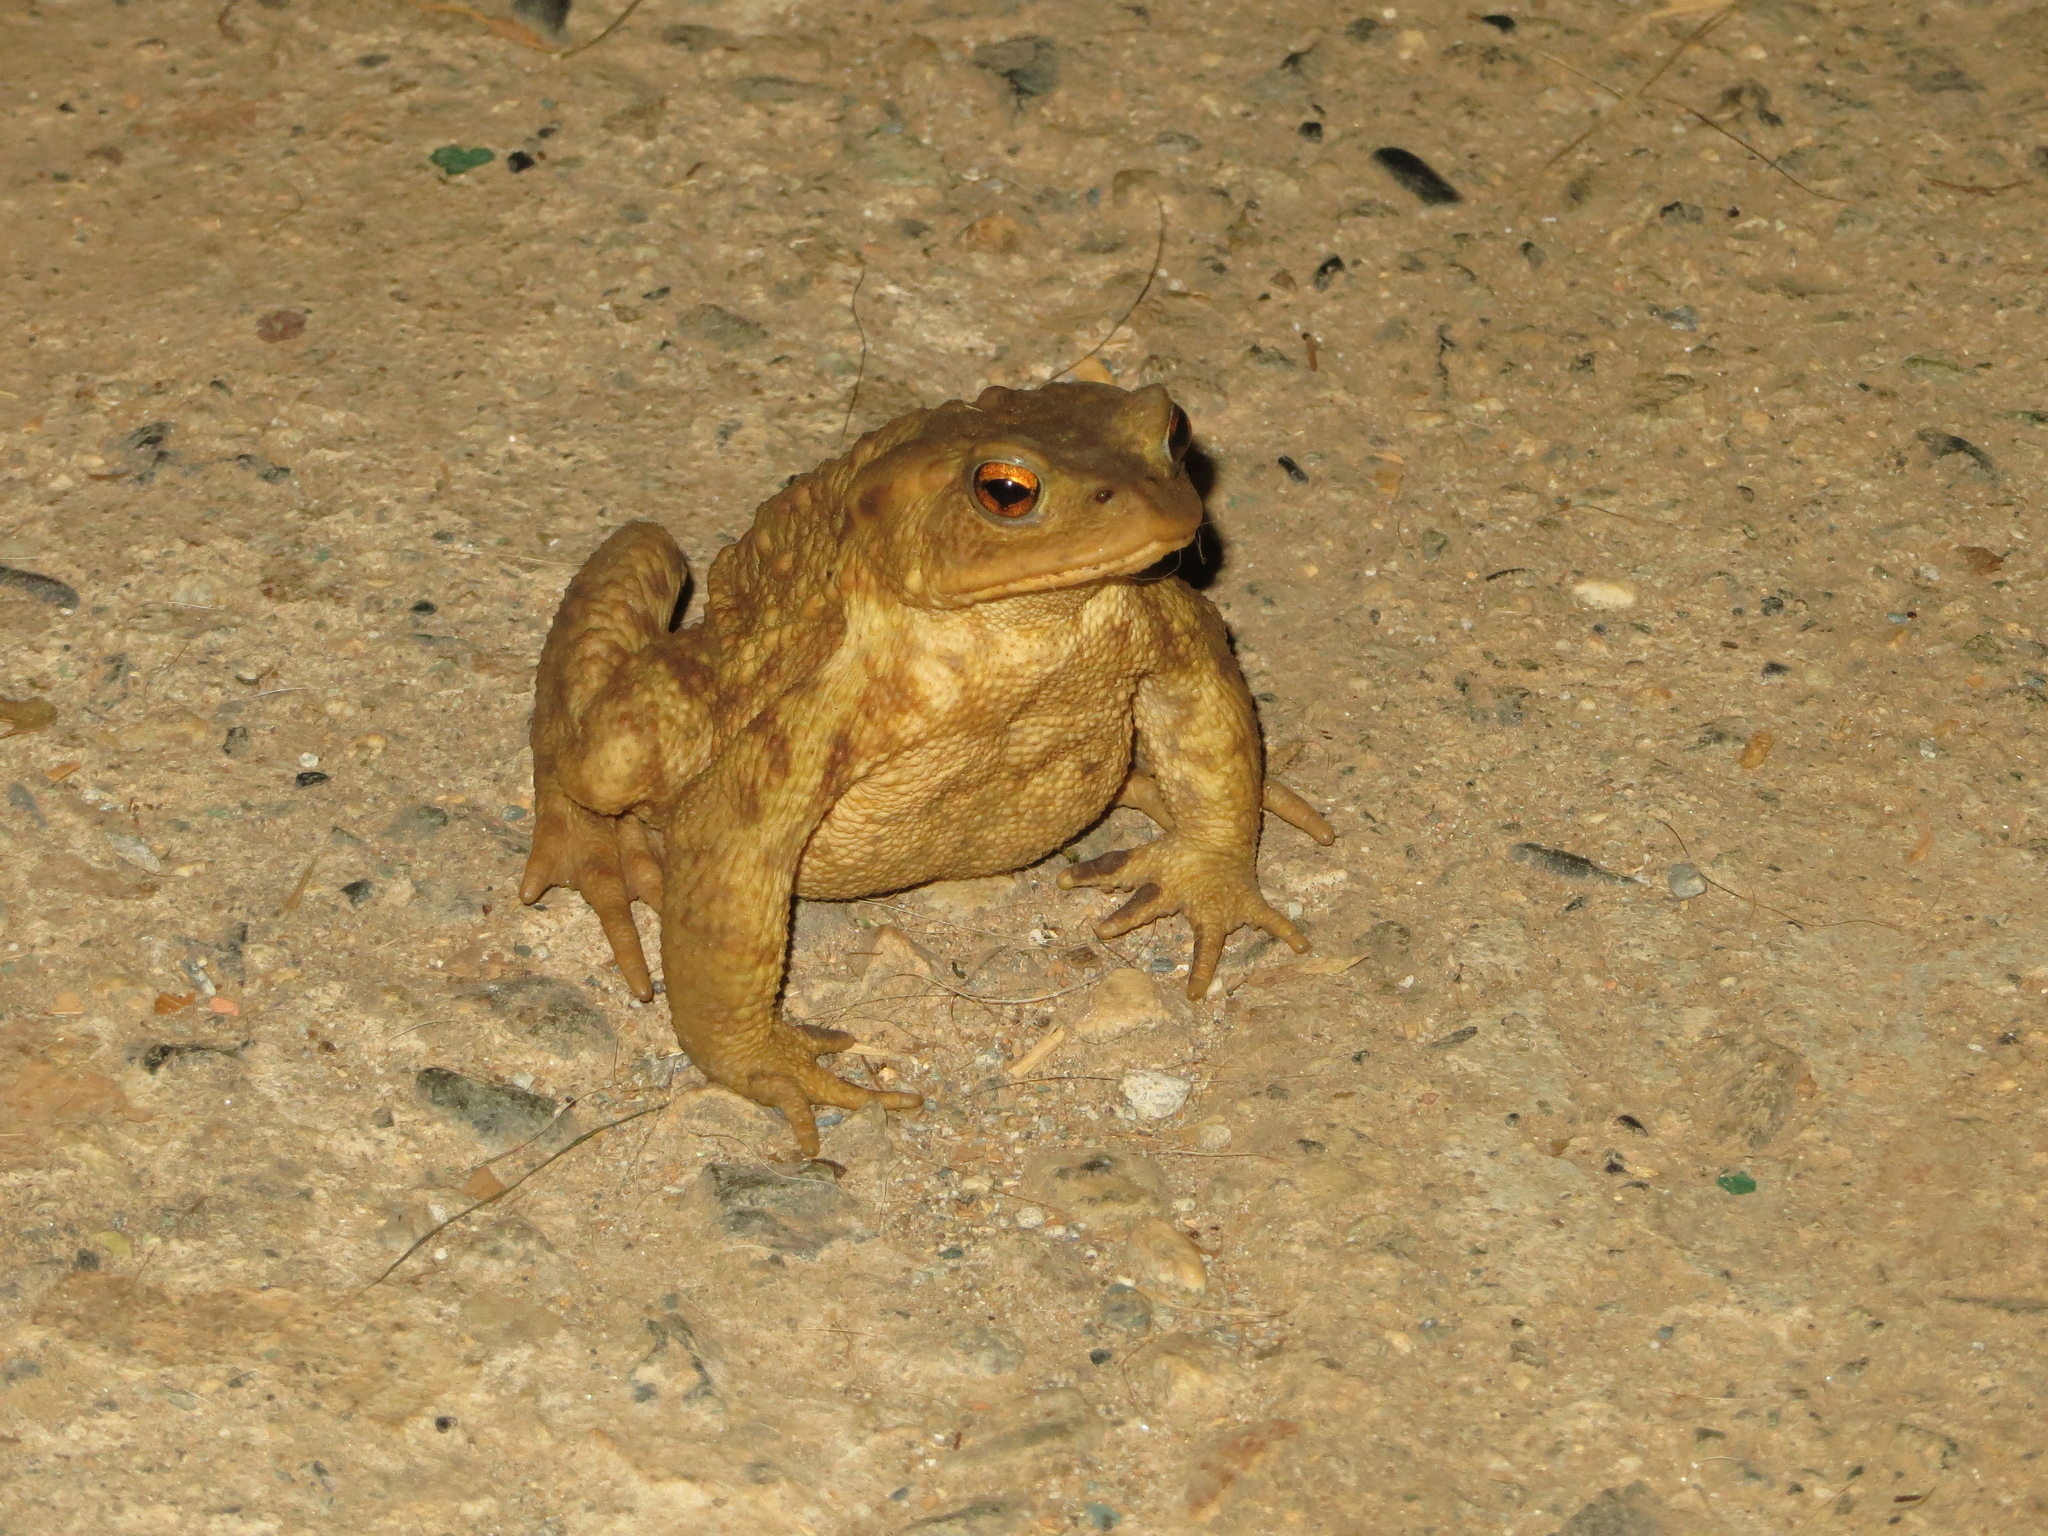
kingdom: Animalia
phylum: Chordata
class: Amphibia
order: Anura
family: Bufonidae
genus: Bufo
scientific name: Bufo bufo
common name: Common toad
